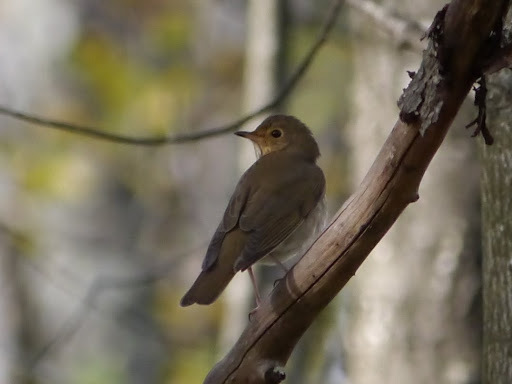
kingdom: Animalia
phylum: Chordata
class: Aves
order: Passeriformes
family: Turdidae
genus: Catharus
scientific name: Catharus ustulatus
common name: Swainson's thrush
